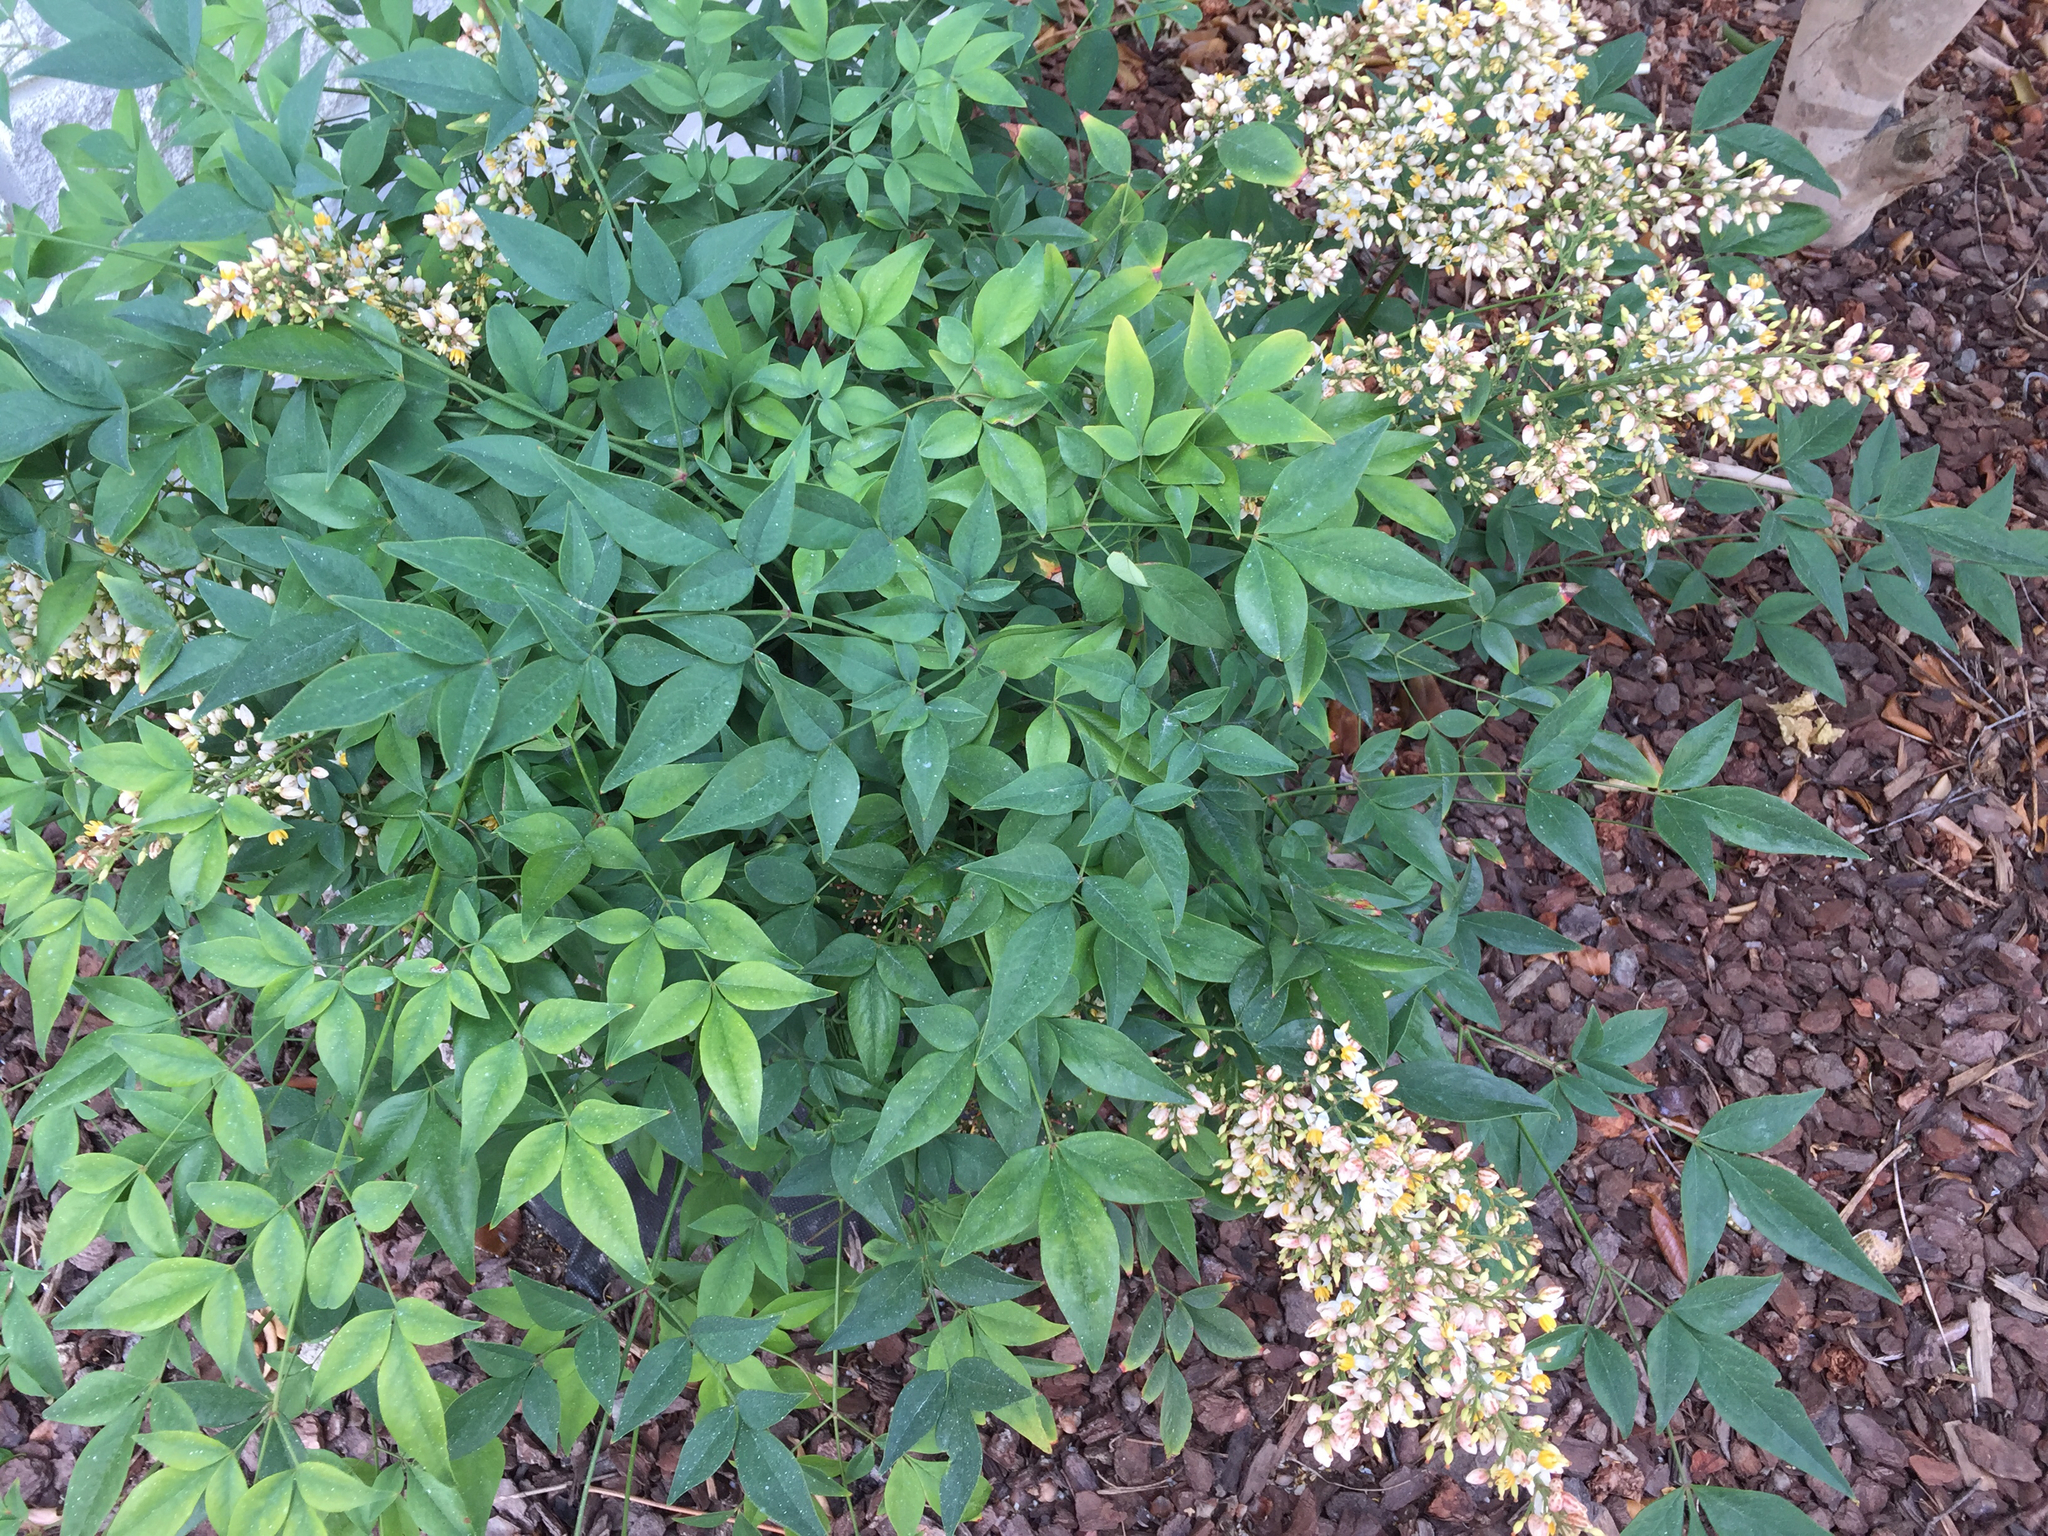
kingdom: Plantae
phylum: Tracheophyta
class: Magnoliopsida
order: Ranunculales
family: Berberidaceae
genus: Nandina
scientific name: Nandina domestica
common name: Sacred bamboo
